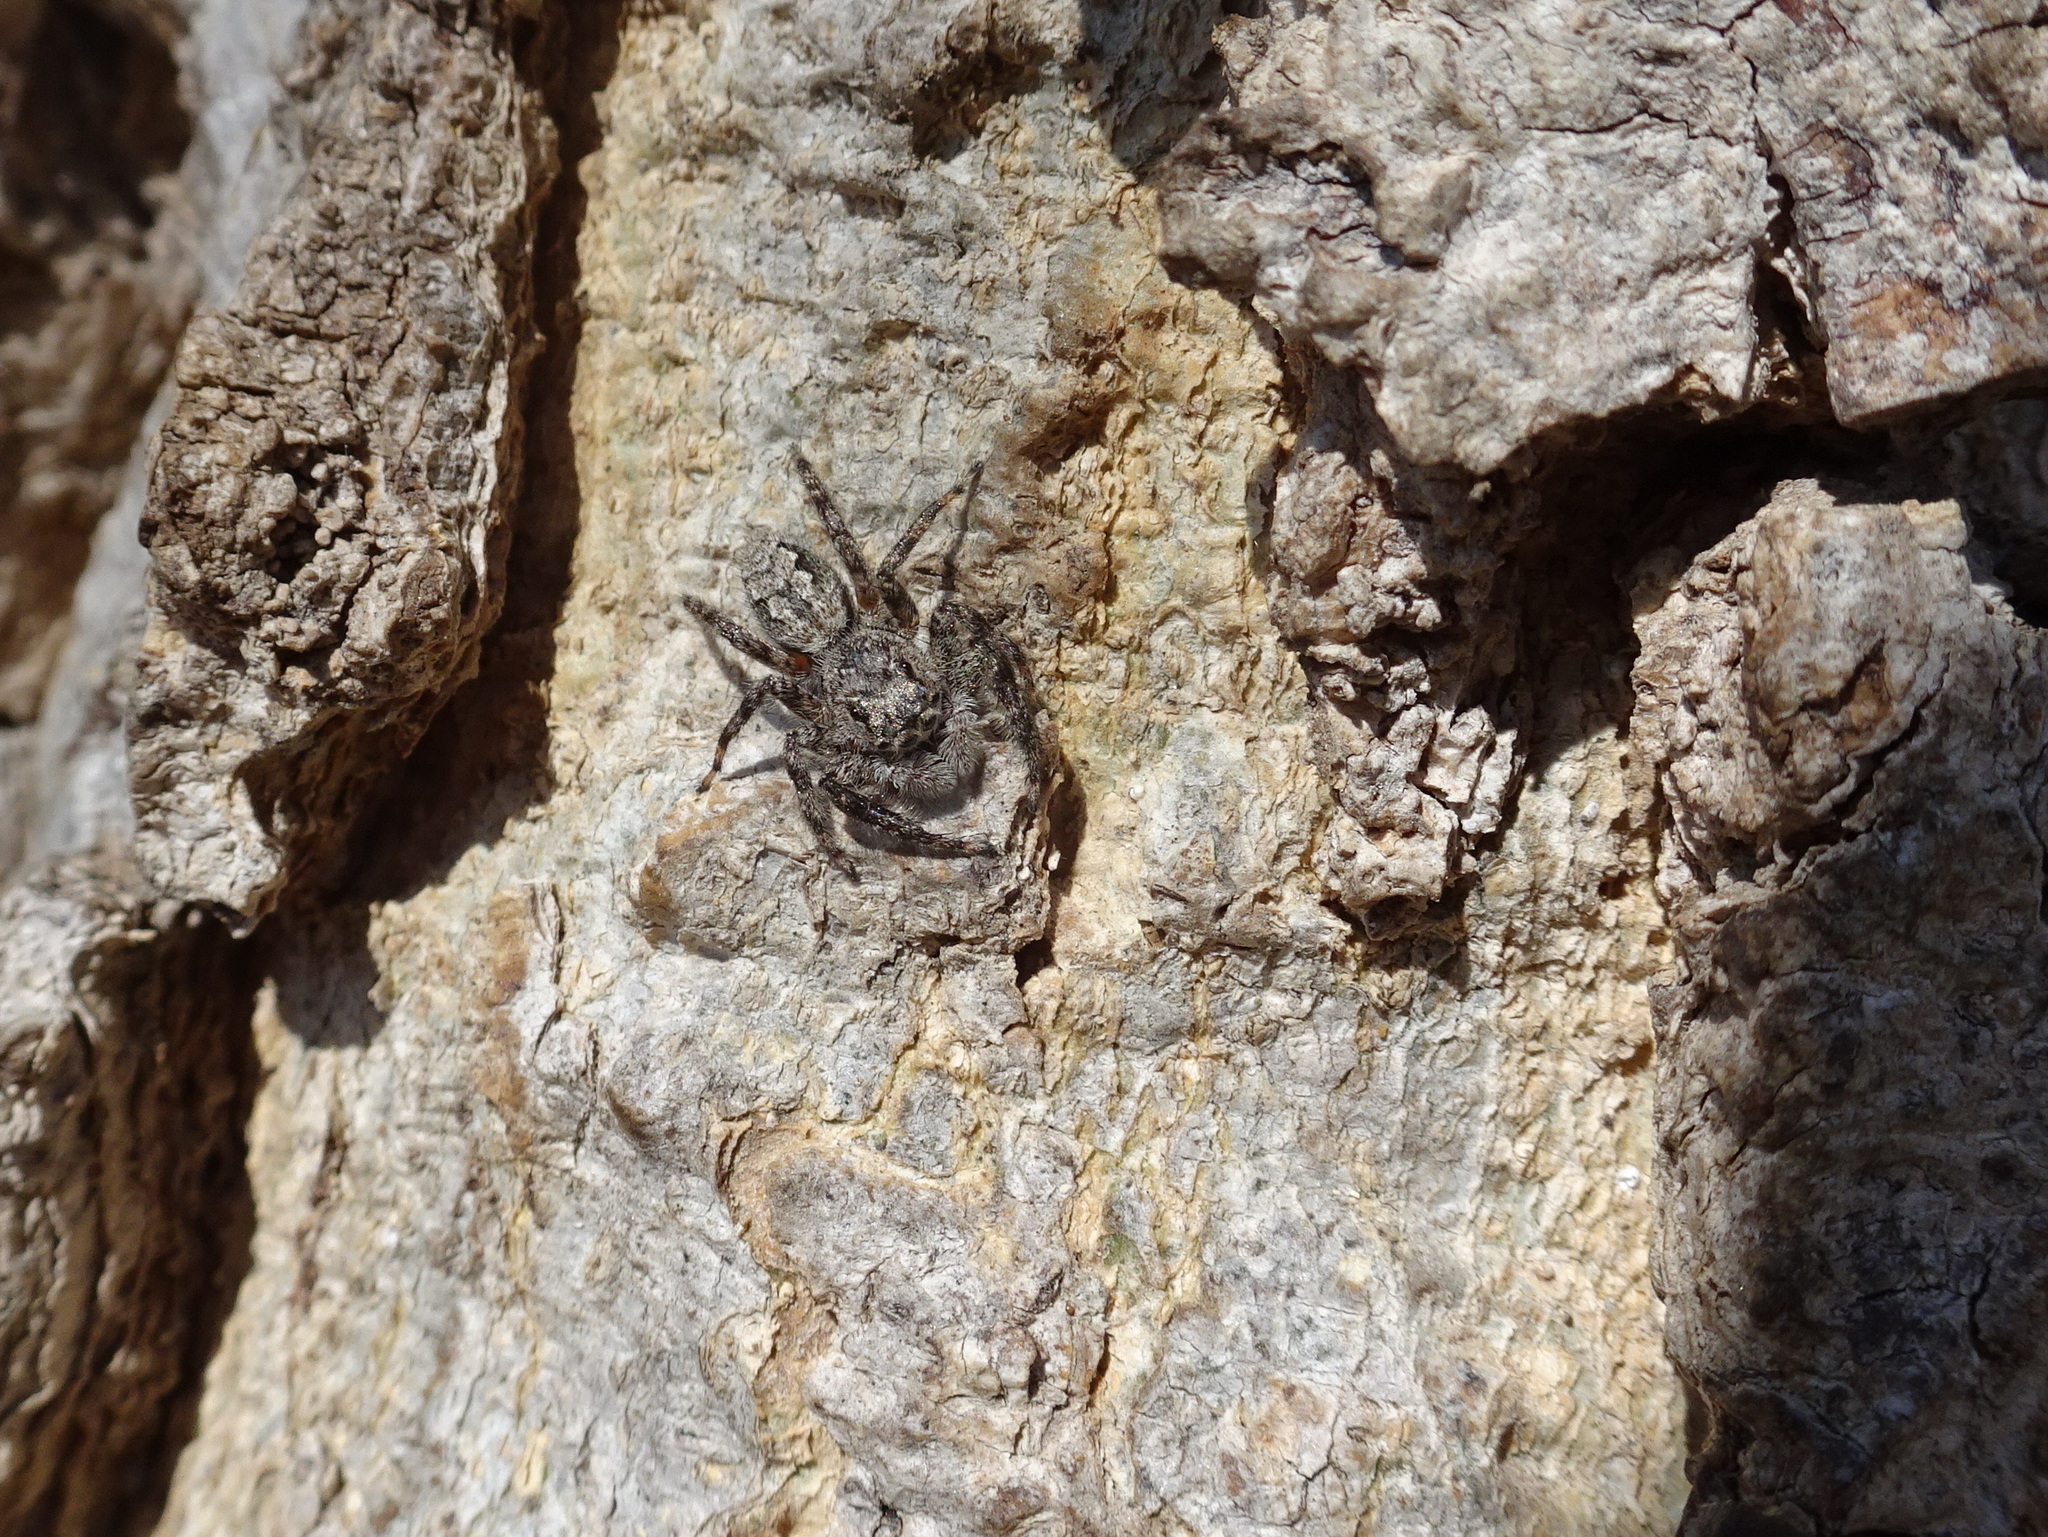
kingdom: Animalia
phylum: Arthropoda
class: Arachnida
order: Araneae
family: Salticidae
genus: Platycryptus
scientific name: Platycryptus undatus
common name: Tan jumping spider
